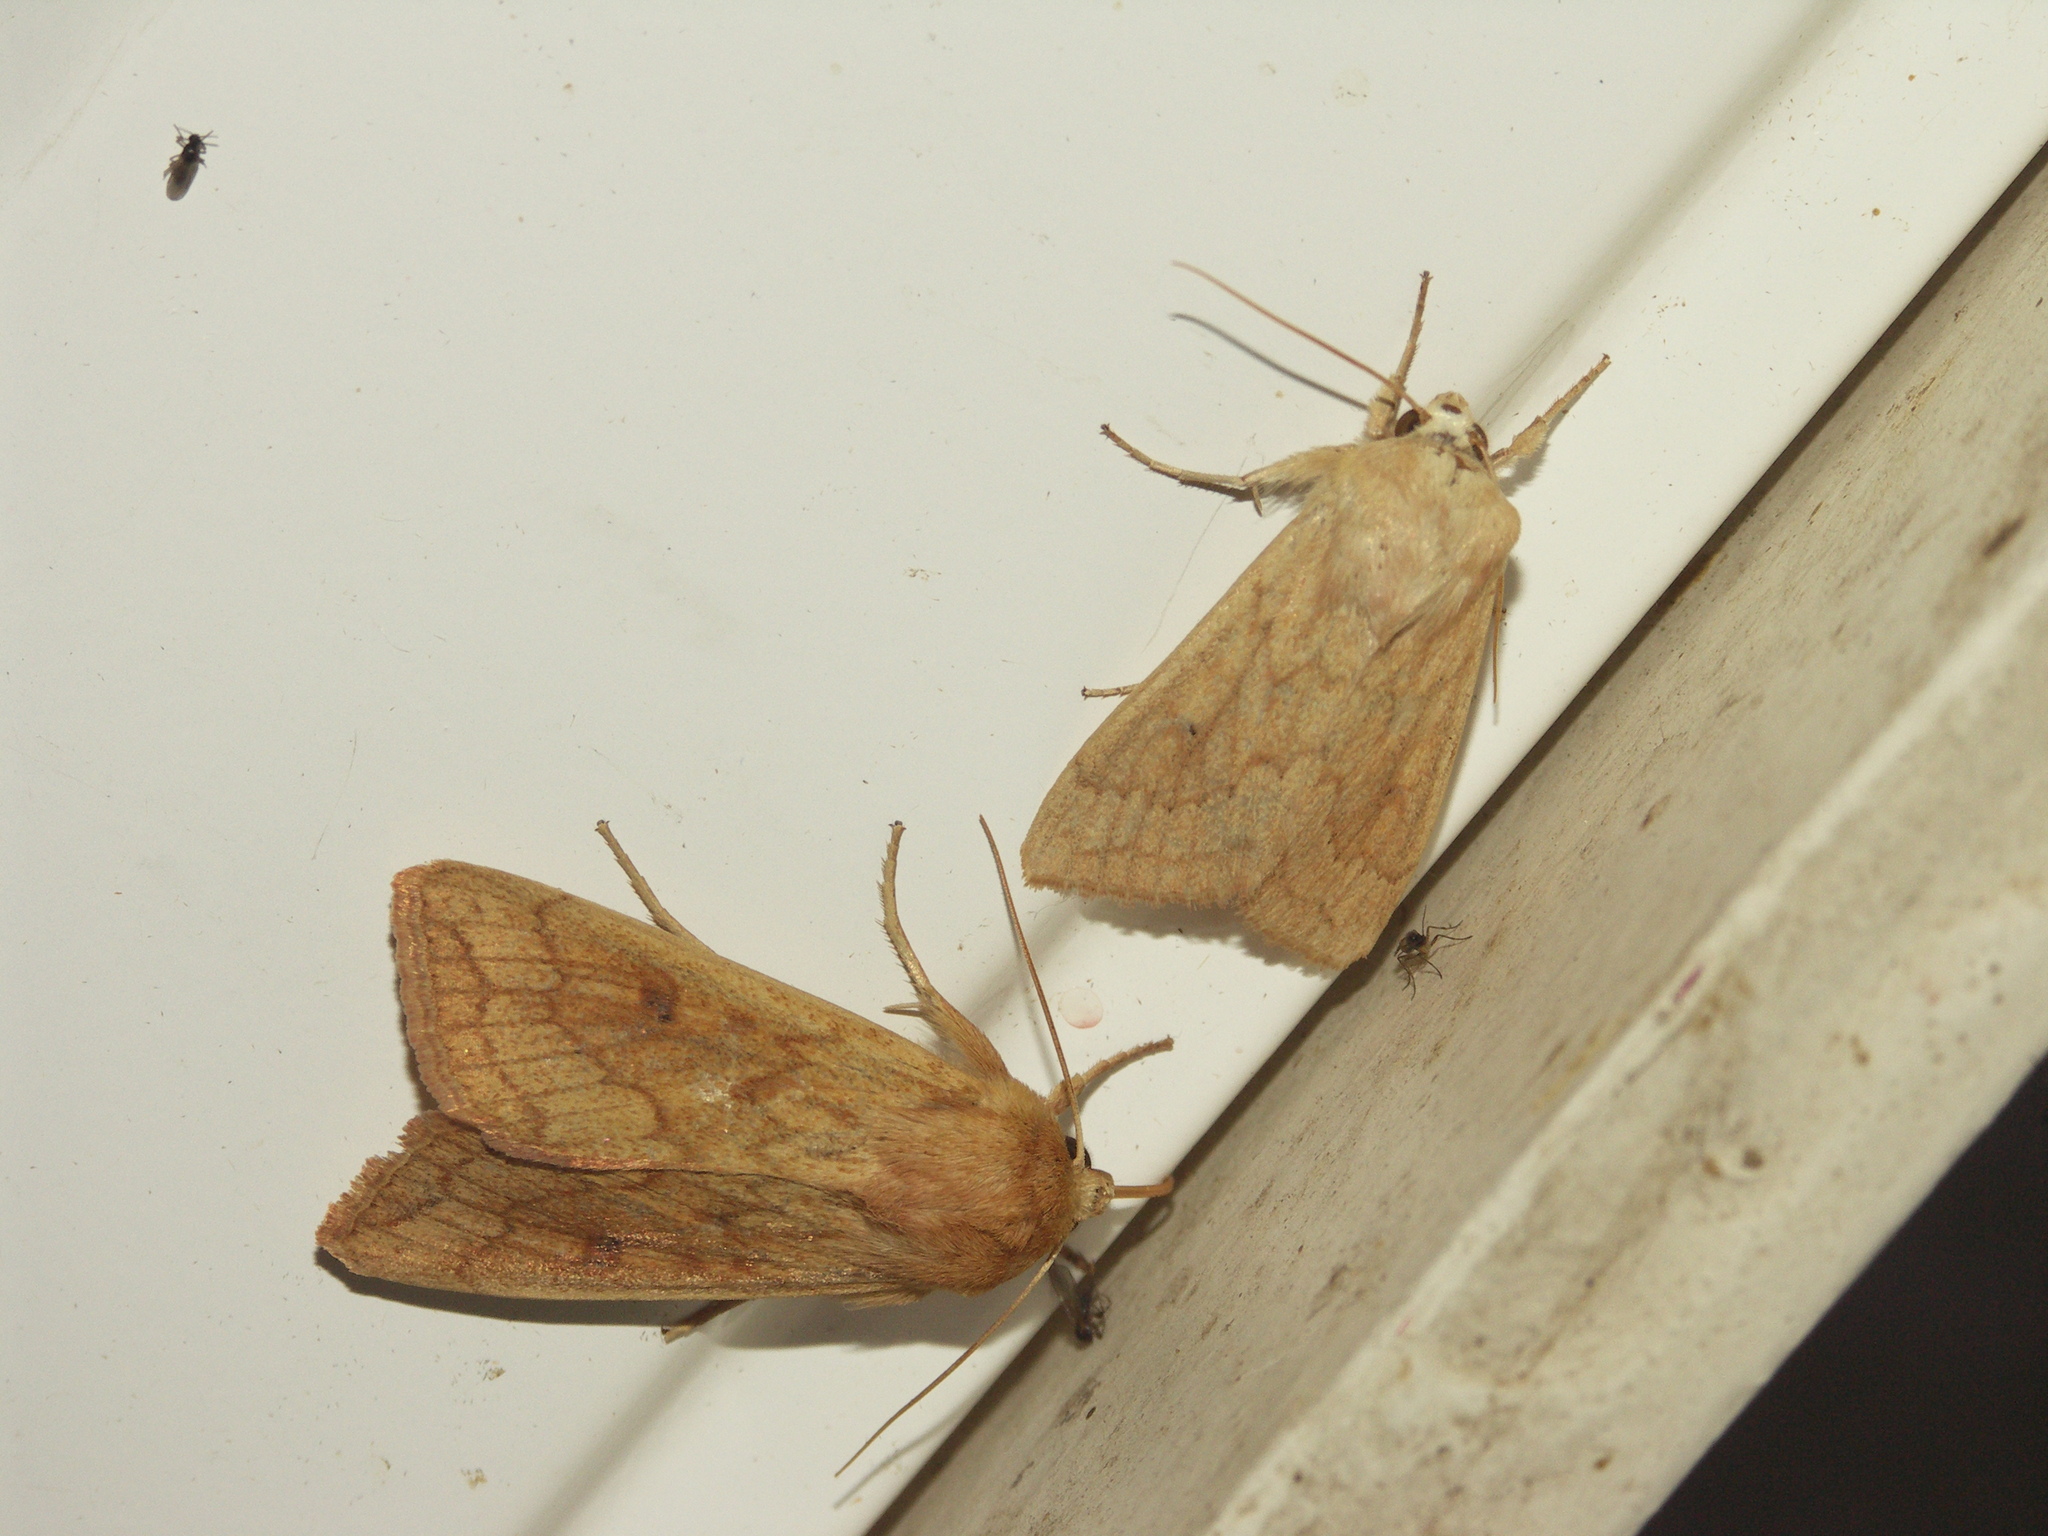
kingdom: Animalia
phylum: Arthropoda
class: Insecta
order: Lepidoptera
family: Noctuidae
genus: Mythimna
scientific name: Mythimna vitellina
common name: Delicate
